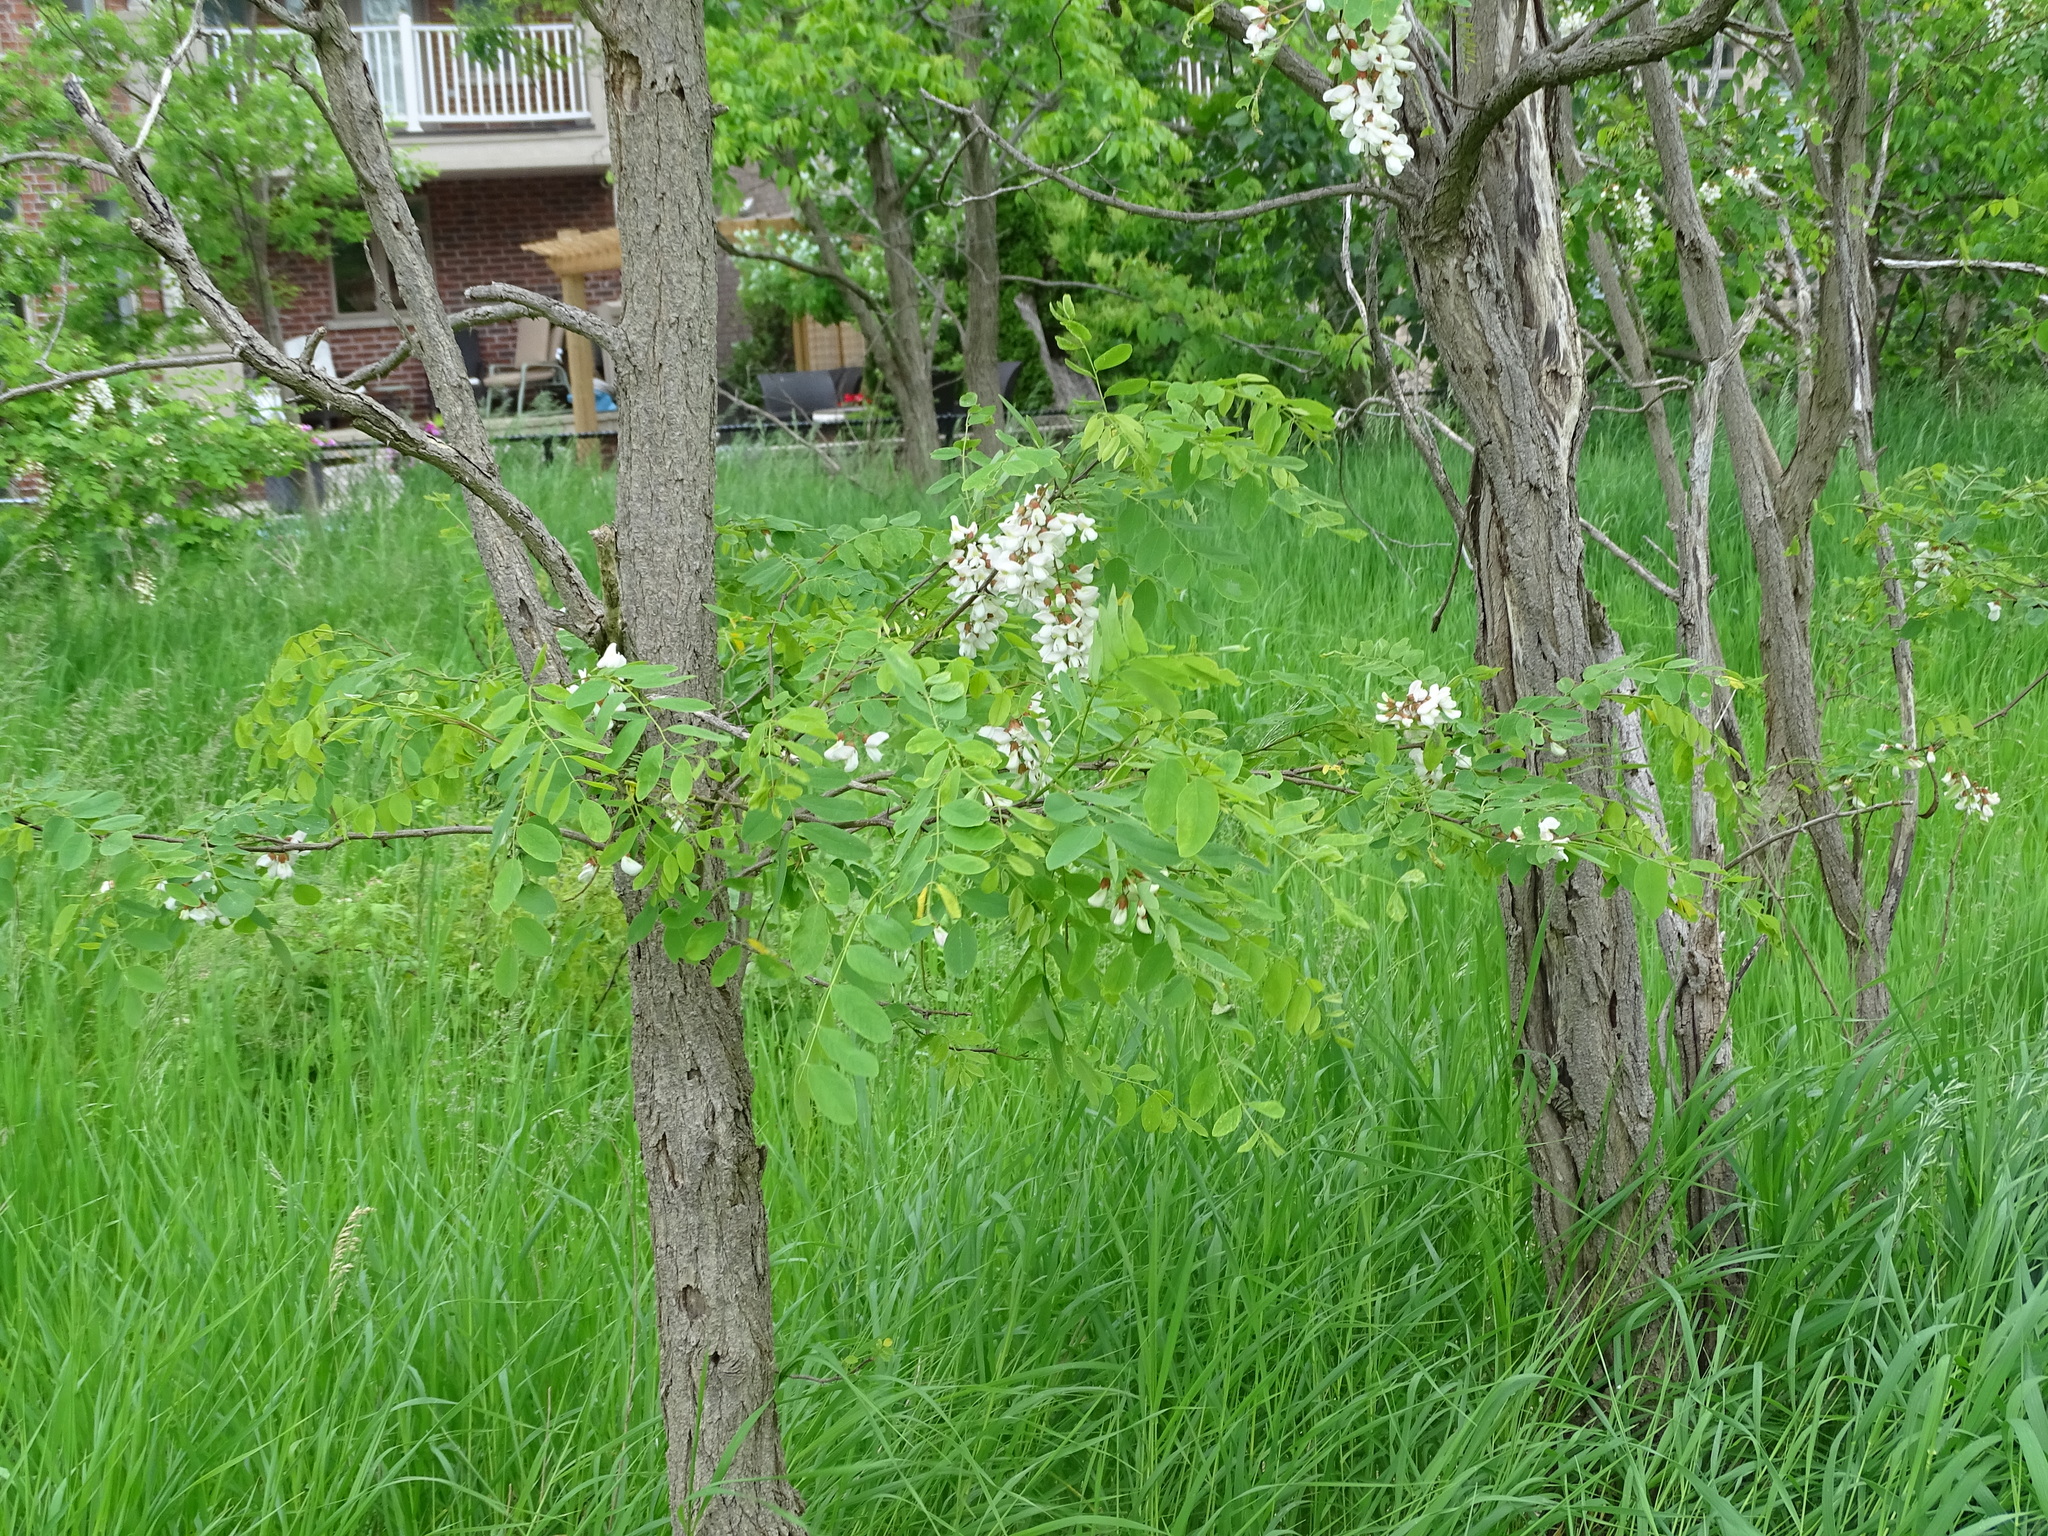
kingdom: Plantae
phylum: Tracheophyta
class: Magnoliopsida
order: Fabales
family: Fabaceae
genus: Robinia
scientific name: Robinia pseudoacacia
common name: Black locust
